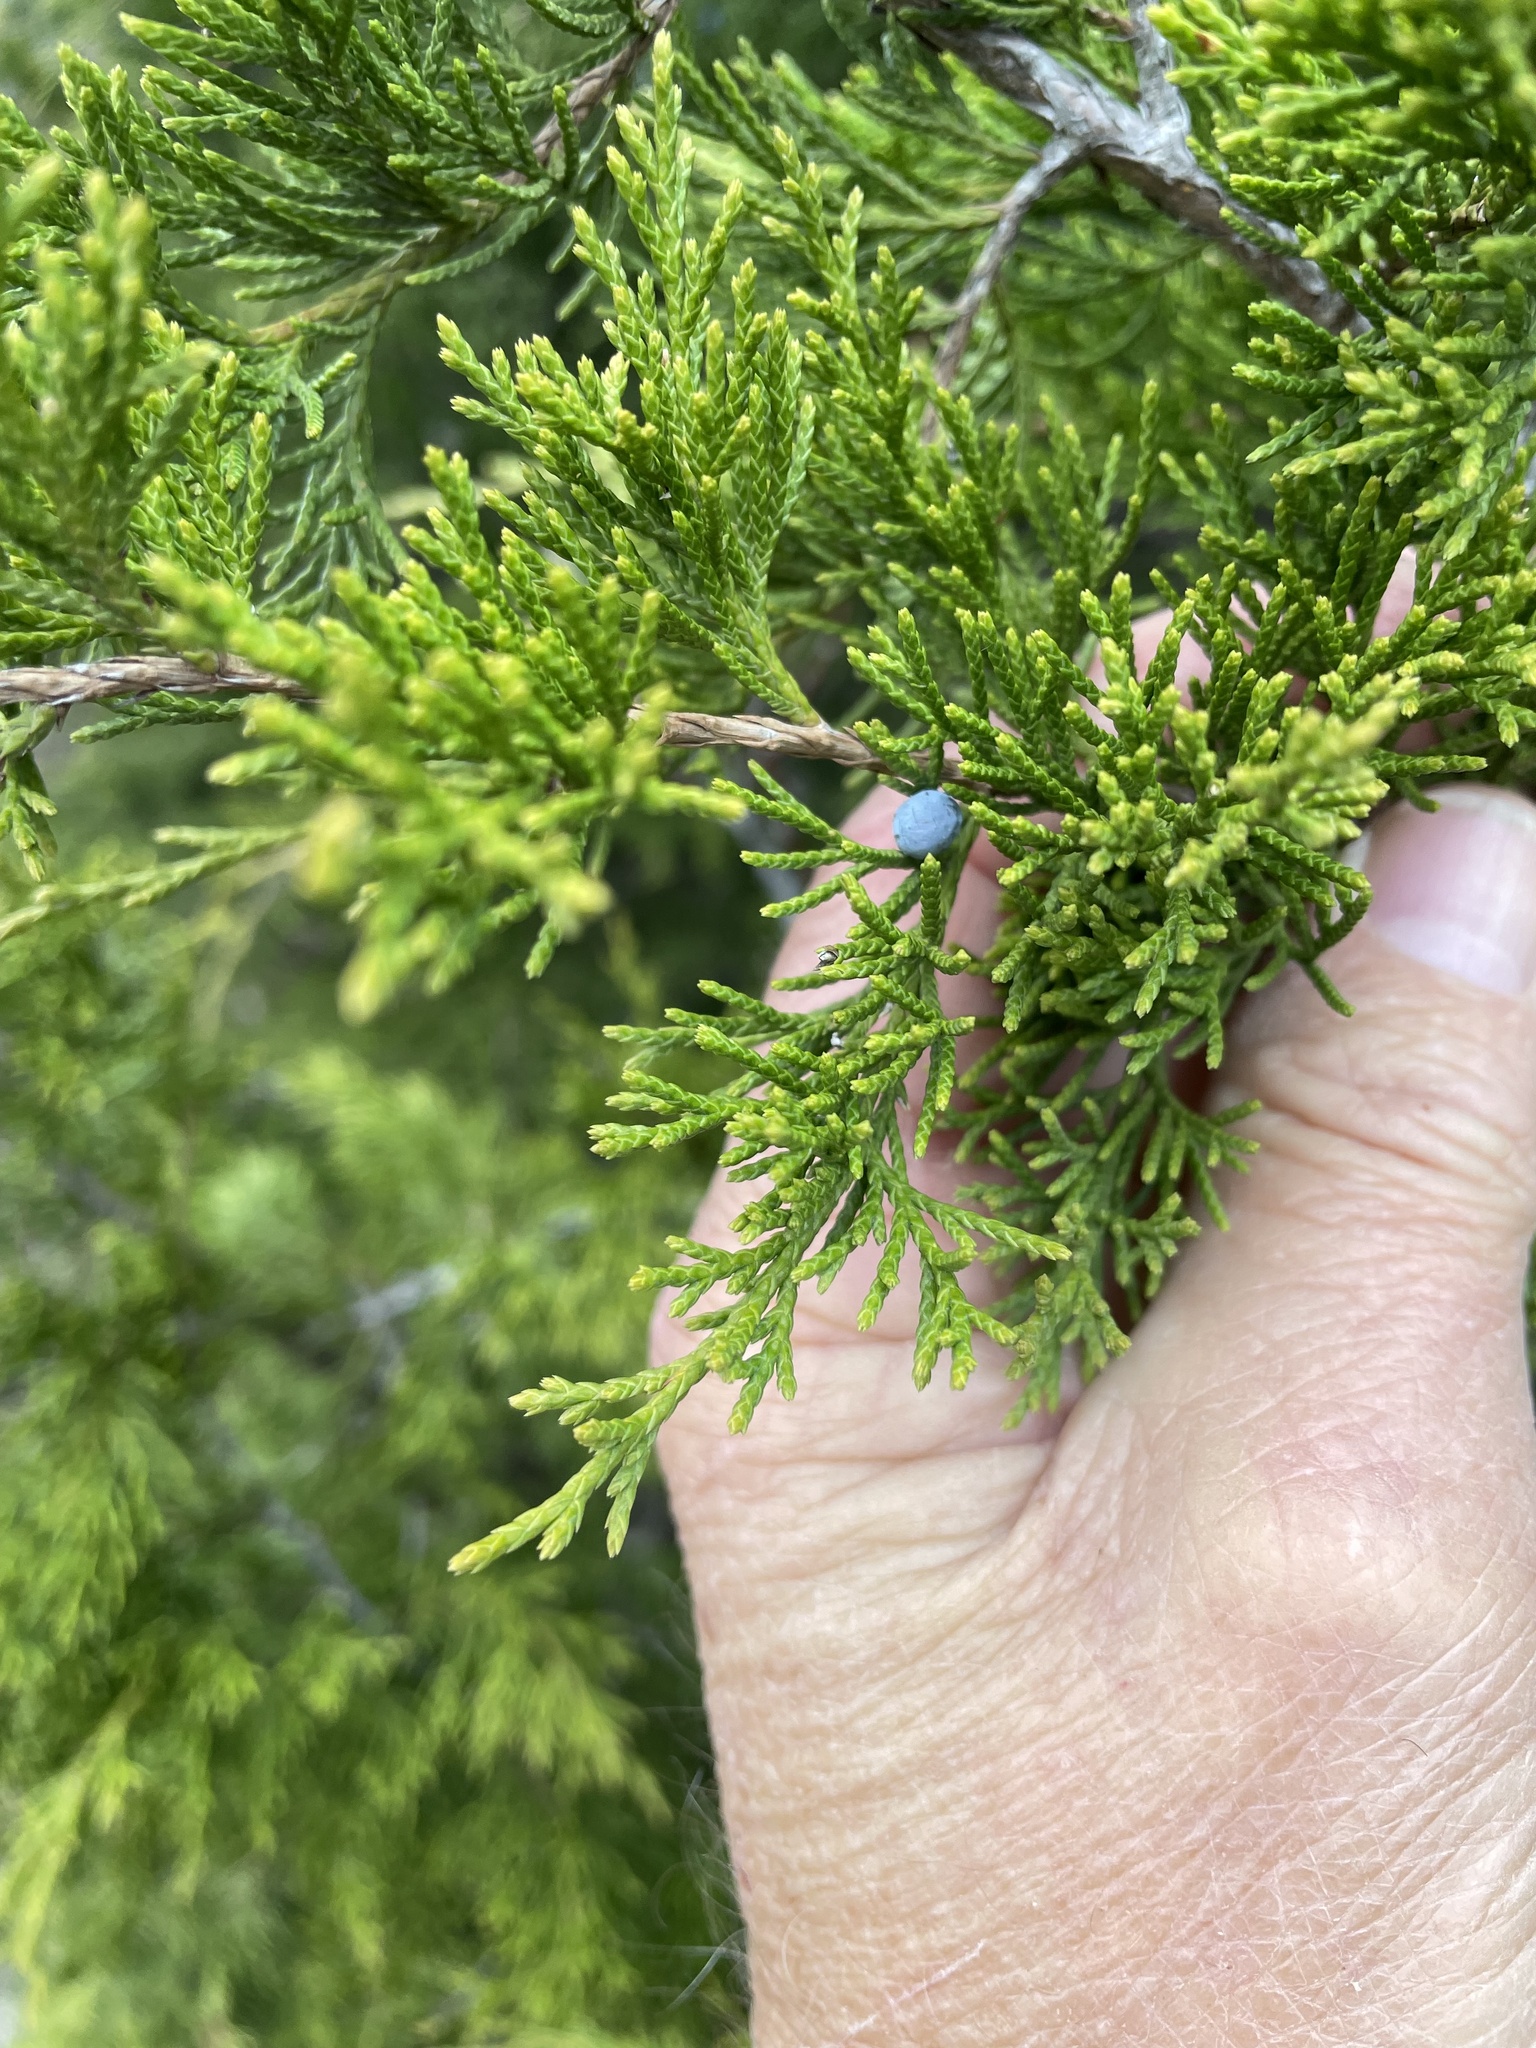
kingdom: Plantae
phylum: Tracheophyta
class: Pinopsida
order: Pinales
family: Cupressaceae
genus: Juniperus
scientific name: Juniperus virginiana
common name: Red juniper
